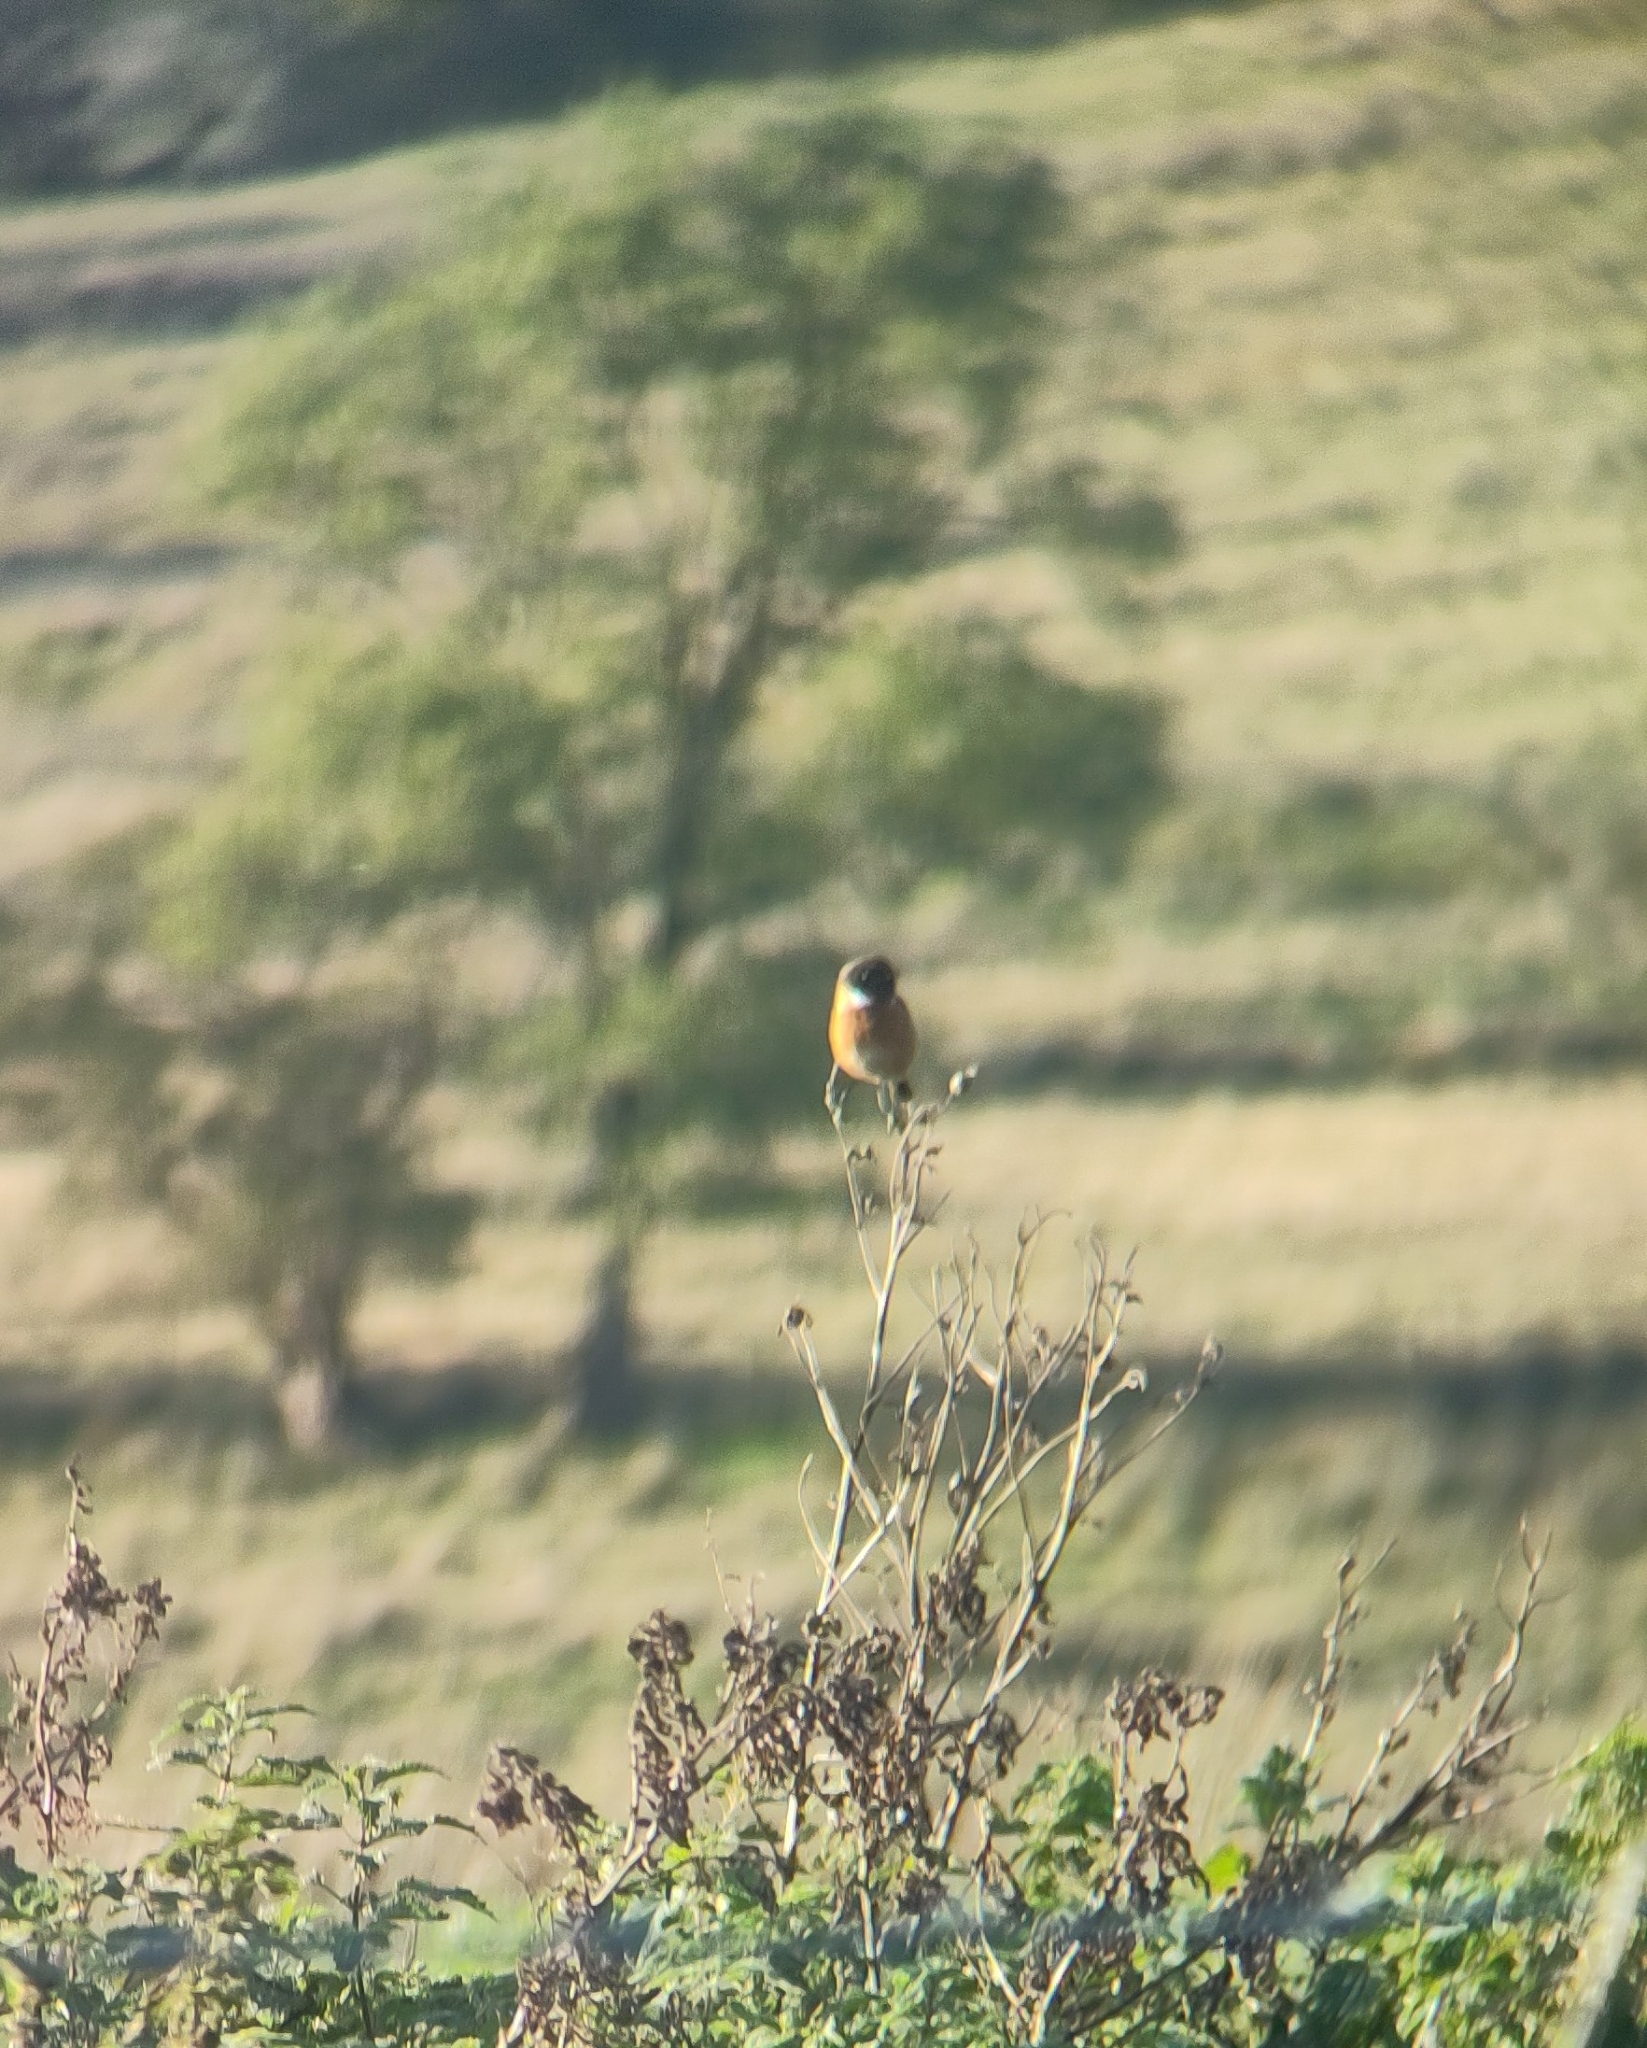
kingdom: Animalia
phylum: Chordata
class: Aves
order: Passeriformes
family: Muscicapidae
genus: Saxicola
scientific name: Saxicola rubicola
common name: European stonechat
